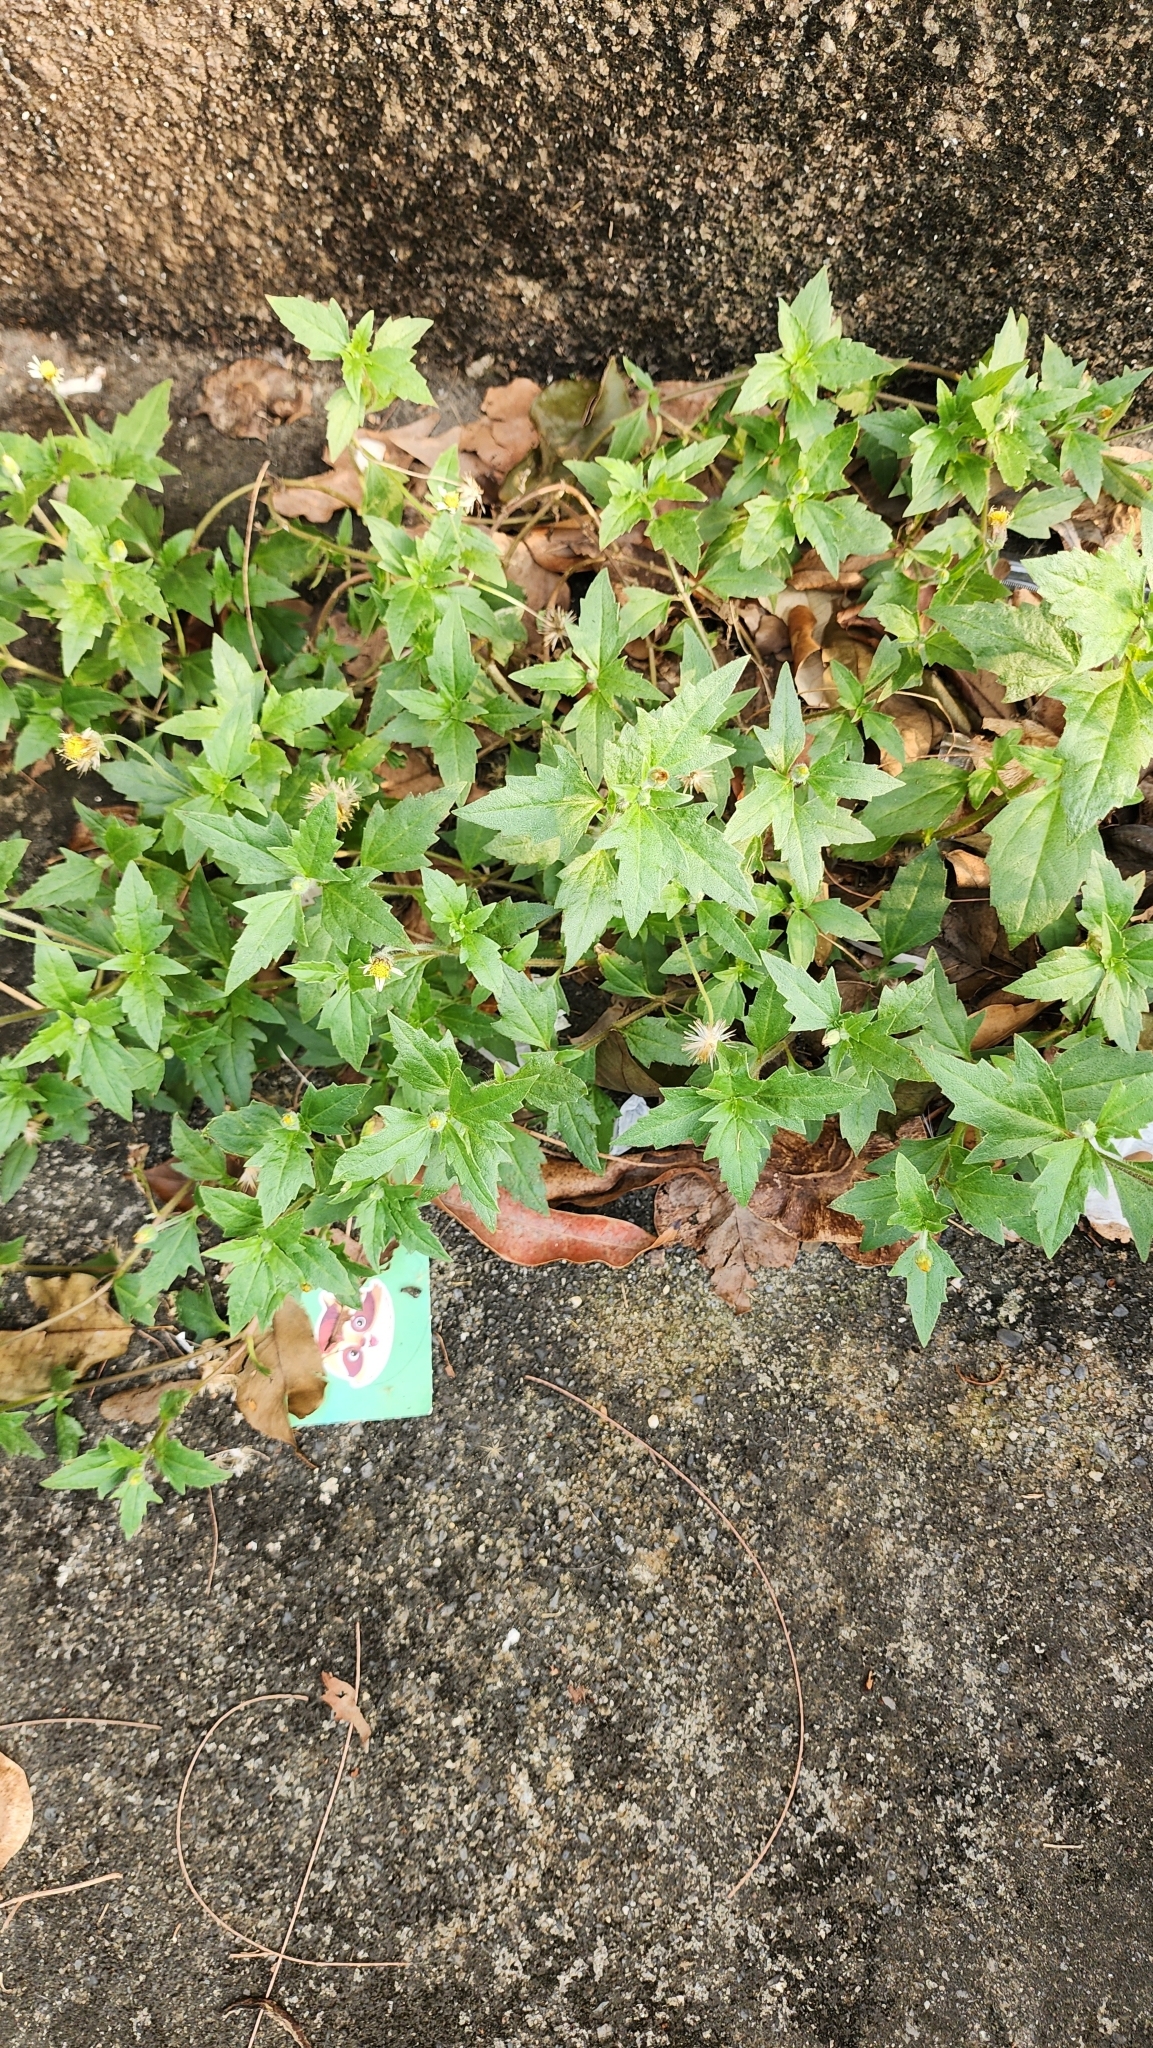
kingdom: Plantae
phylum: Tracheophyta
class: Magnoliopsida
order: Asterales
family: Asteraceae
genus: Tridax
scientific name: Tridax procumbens
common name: Coatbuttons
